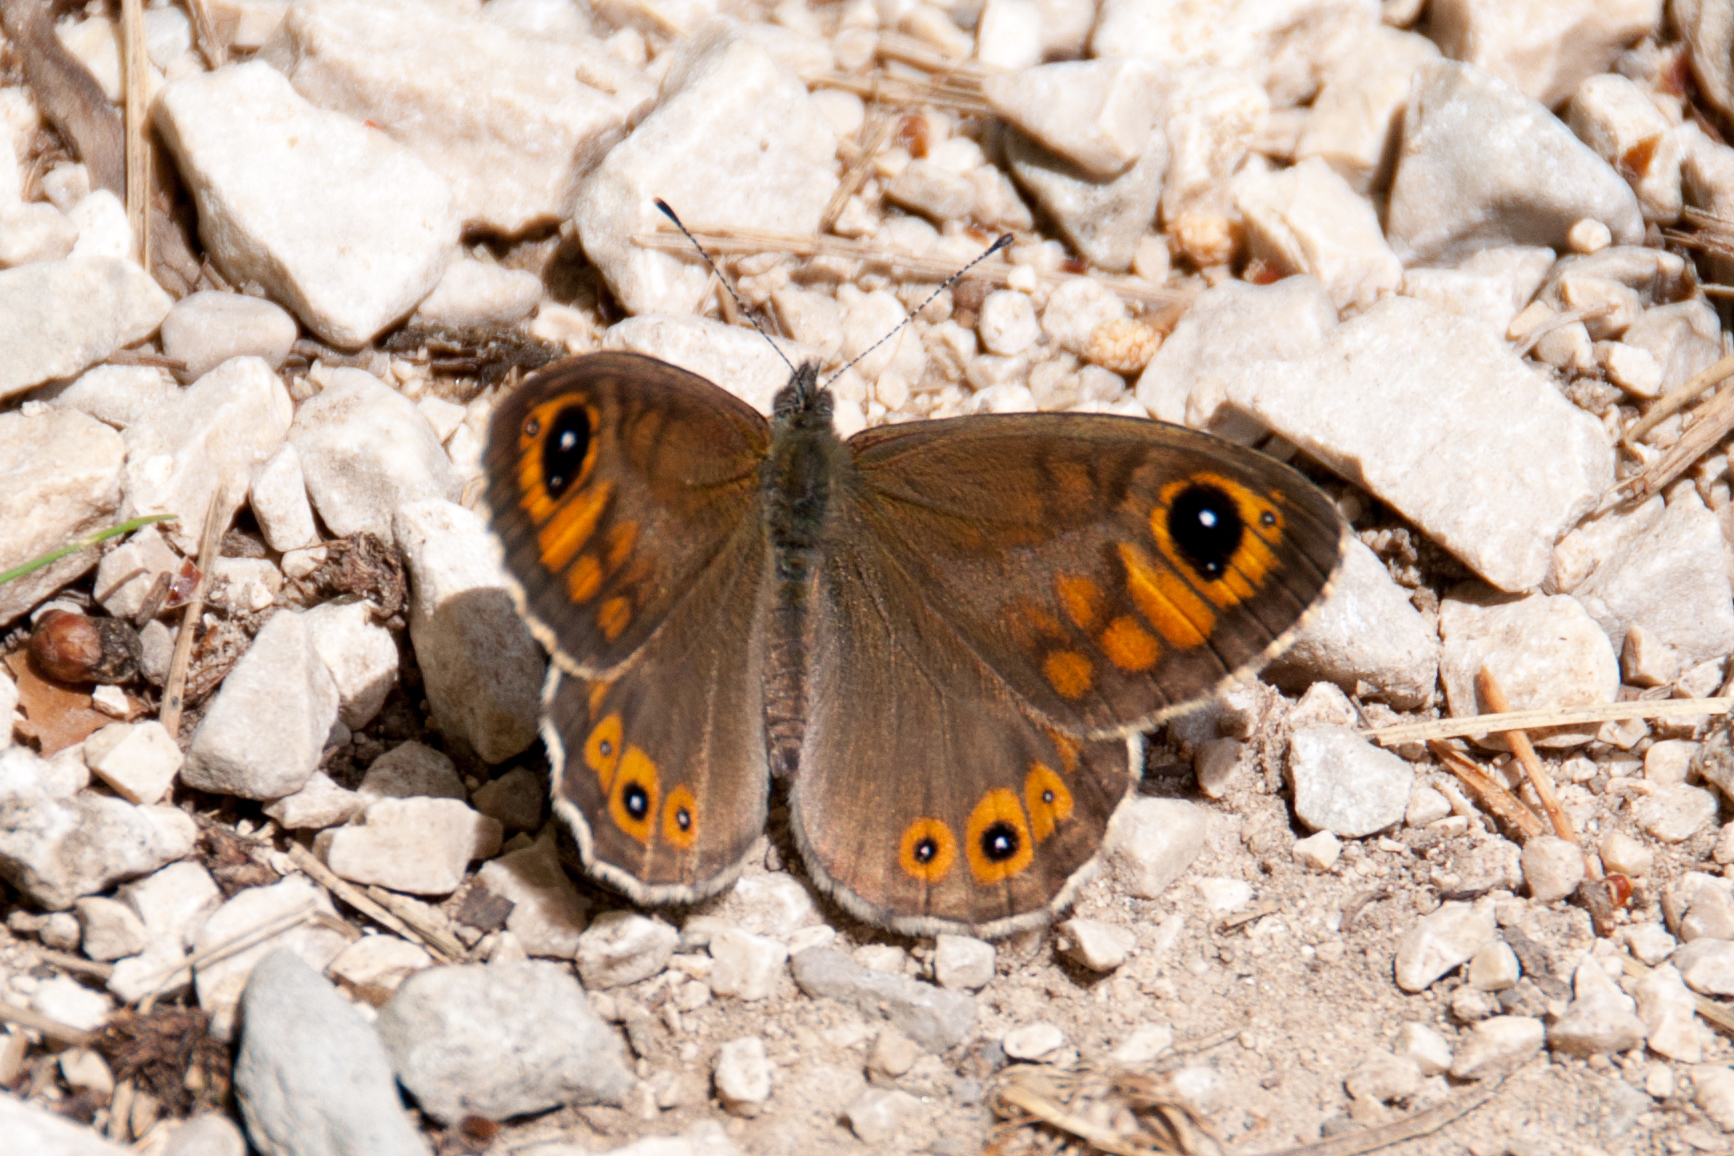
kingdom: Animalia
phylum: Arthropoda
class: Insecta
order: Lepidoptera
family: Nymphalidae
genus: Pararge
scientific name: Pararge Lasiommata maera
